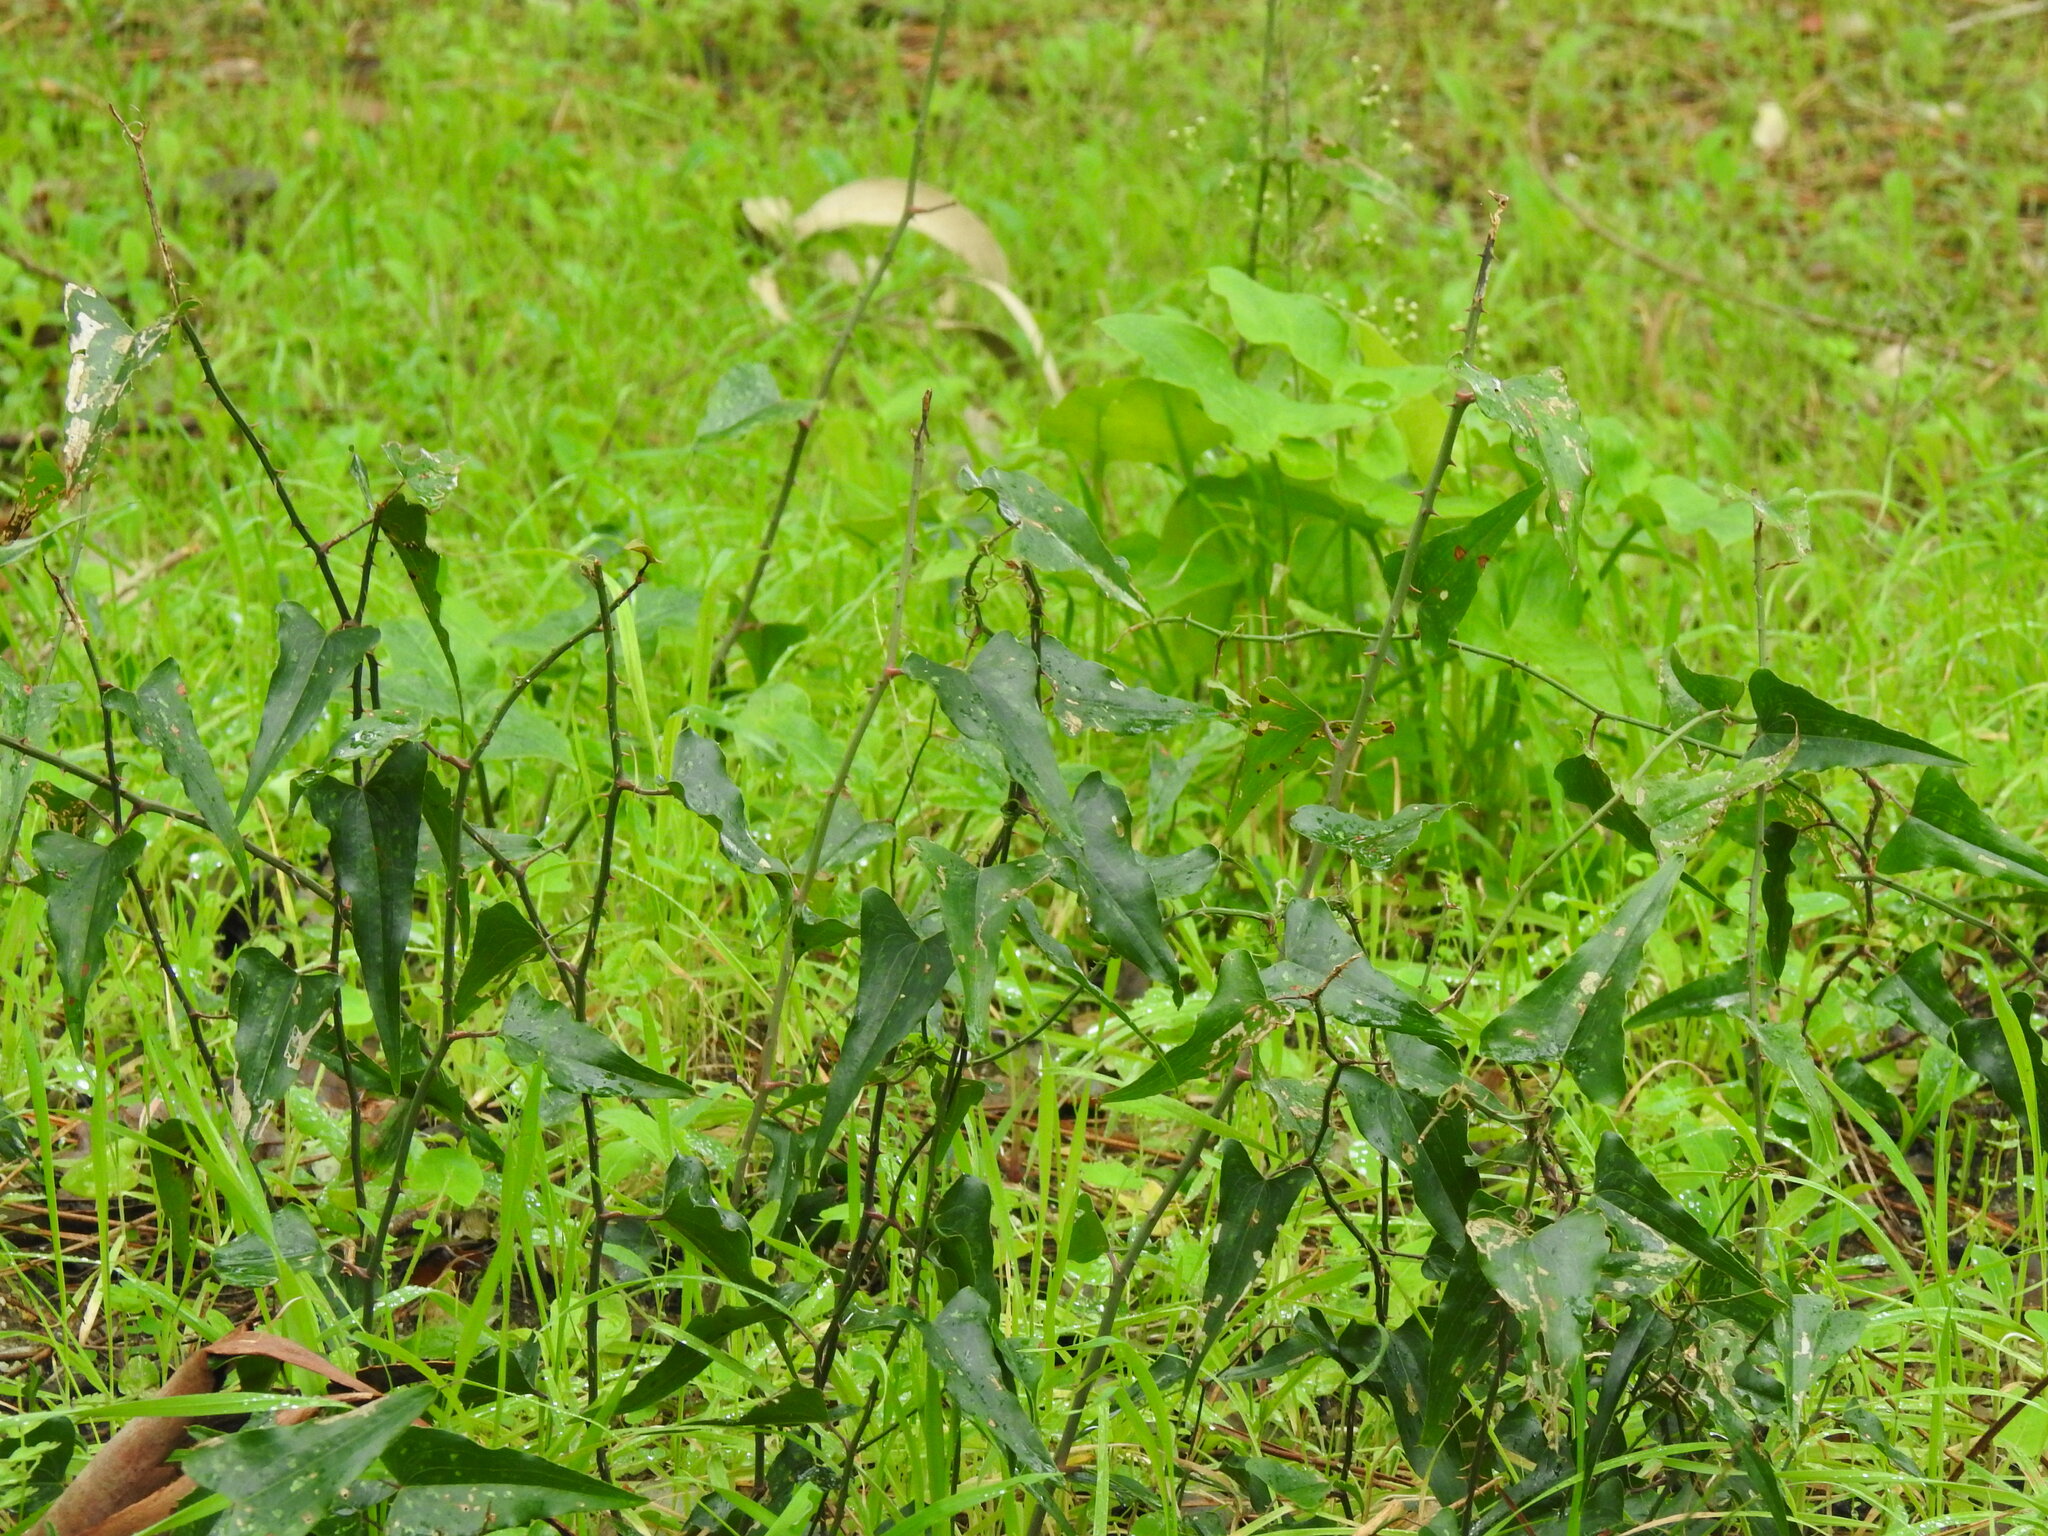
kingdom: Plantae
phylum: Tracheophyta
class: Liliopsida
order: Liliales
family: Smilacaceae
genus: Smilax
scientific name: Smilax aspera
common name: Common smilax
